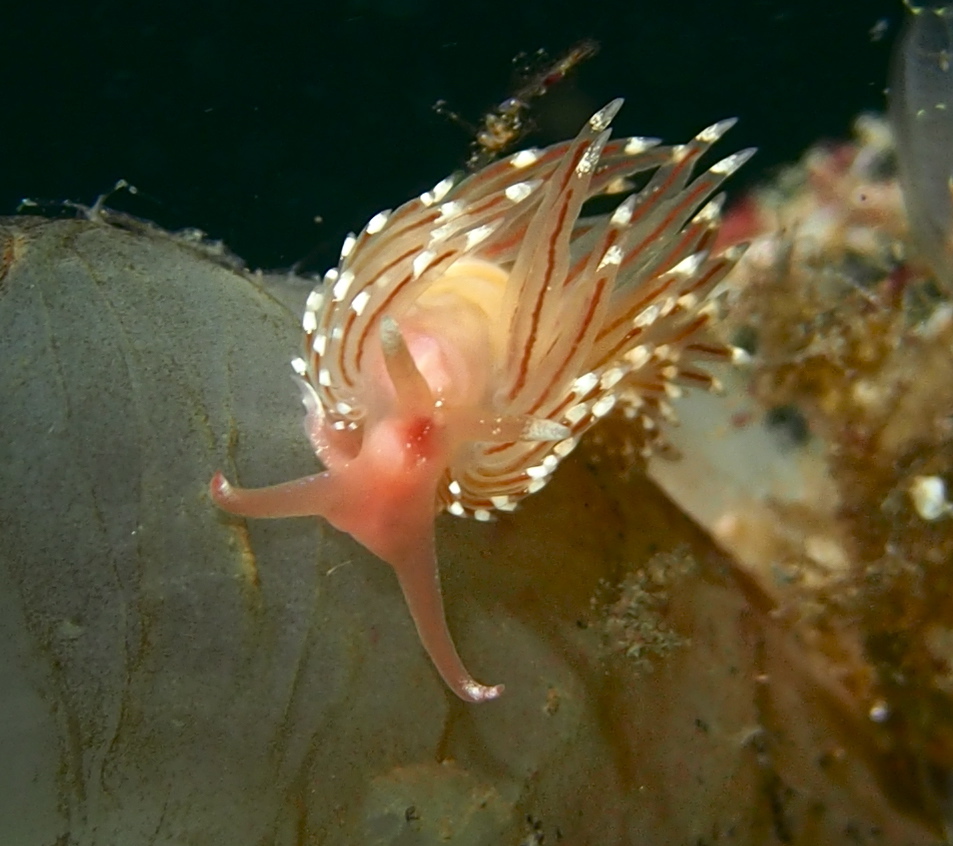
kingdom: Animalia
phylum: Mollusca
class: Gastropoda
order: Nudibranchia
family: Facelinidae
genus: Facelina
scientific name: Facelina bostoniensis
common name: Boston facelina
